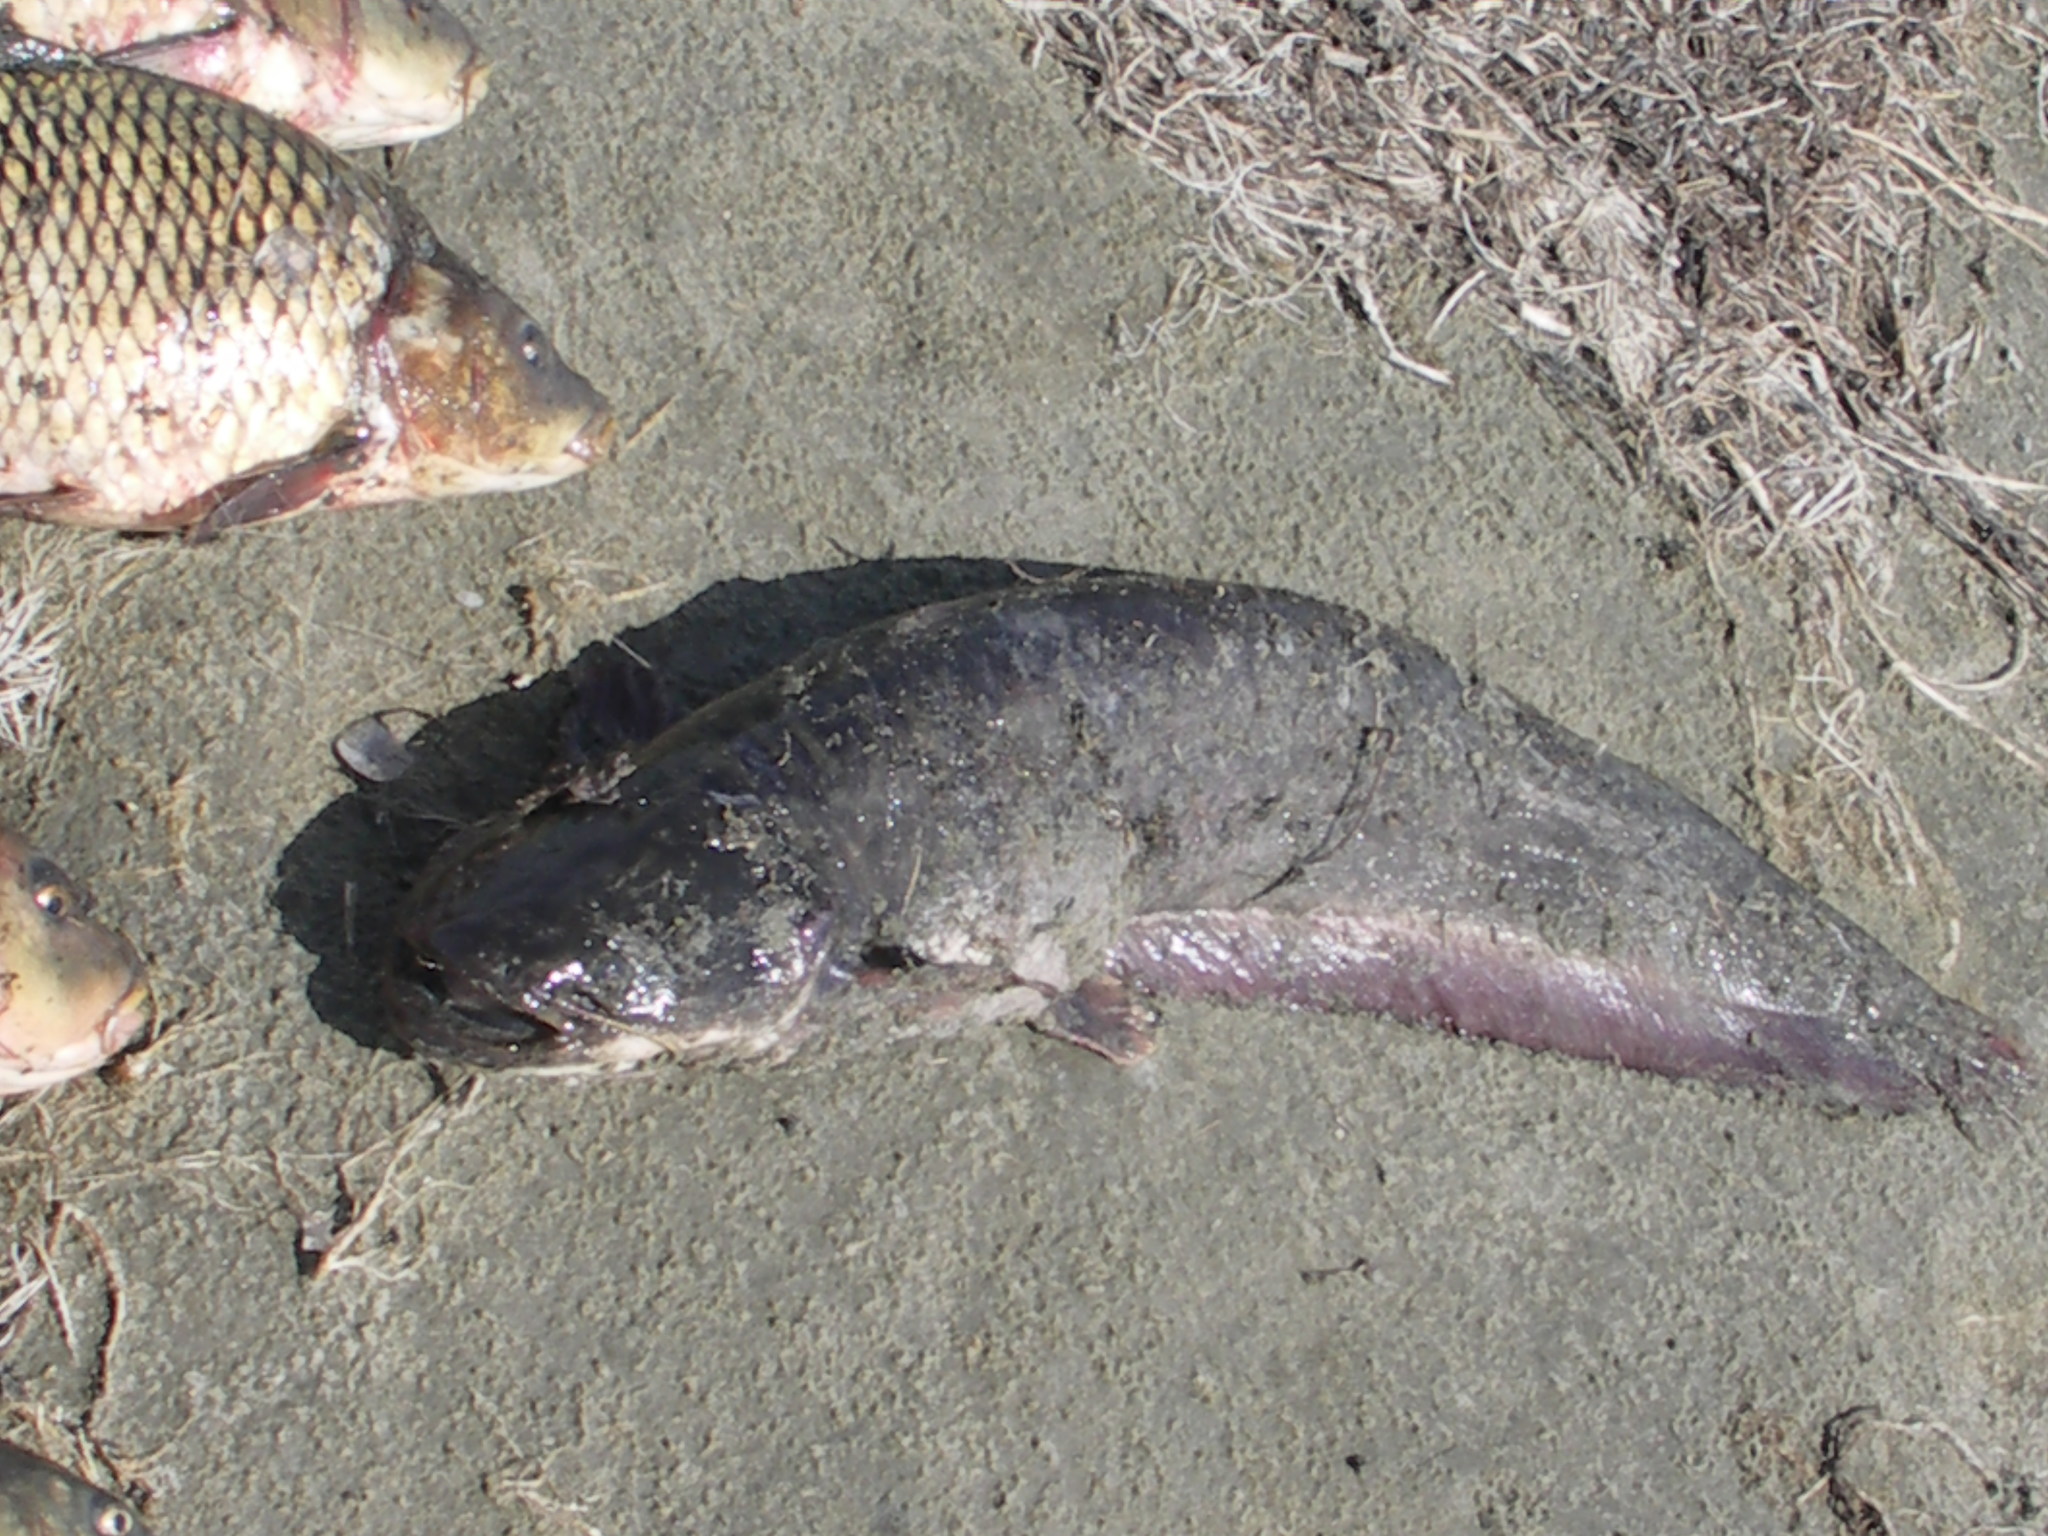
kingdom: Animalia
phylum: Chordata
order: Siluriformes
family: Siluridae
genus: Silurus
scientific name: Silurus asotus
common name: Amur catfish
